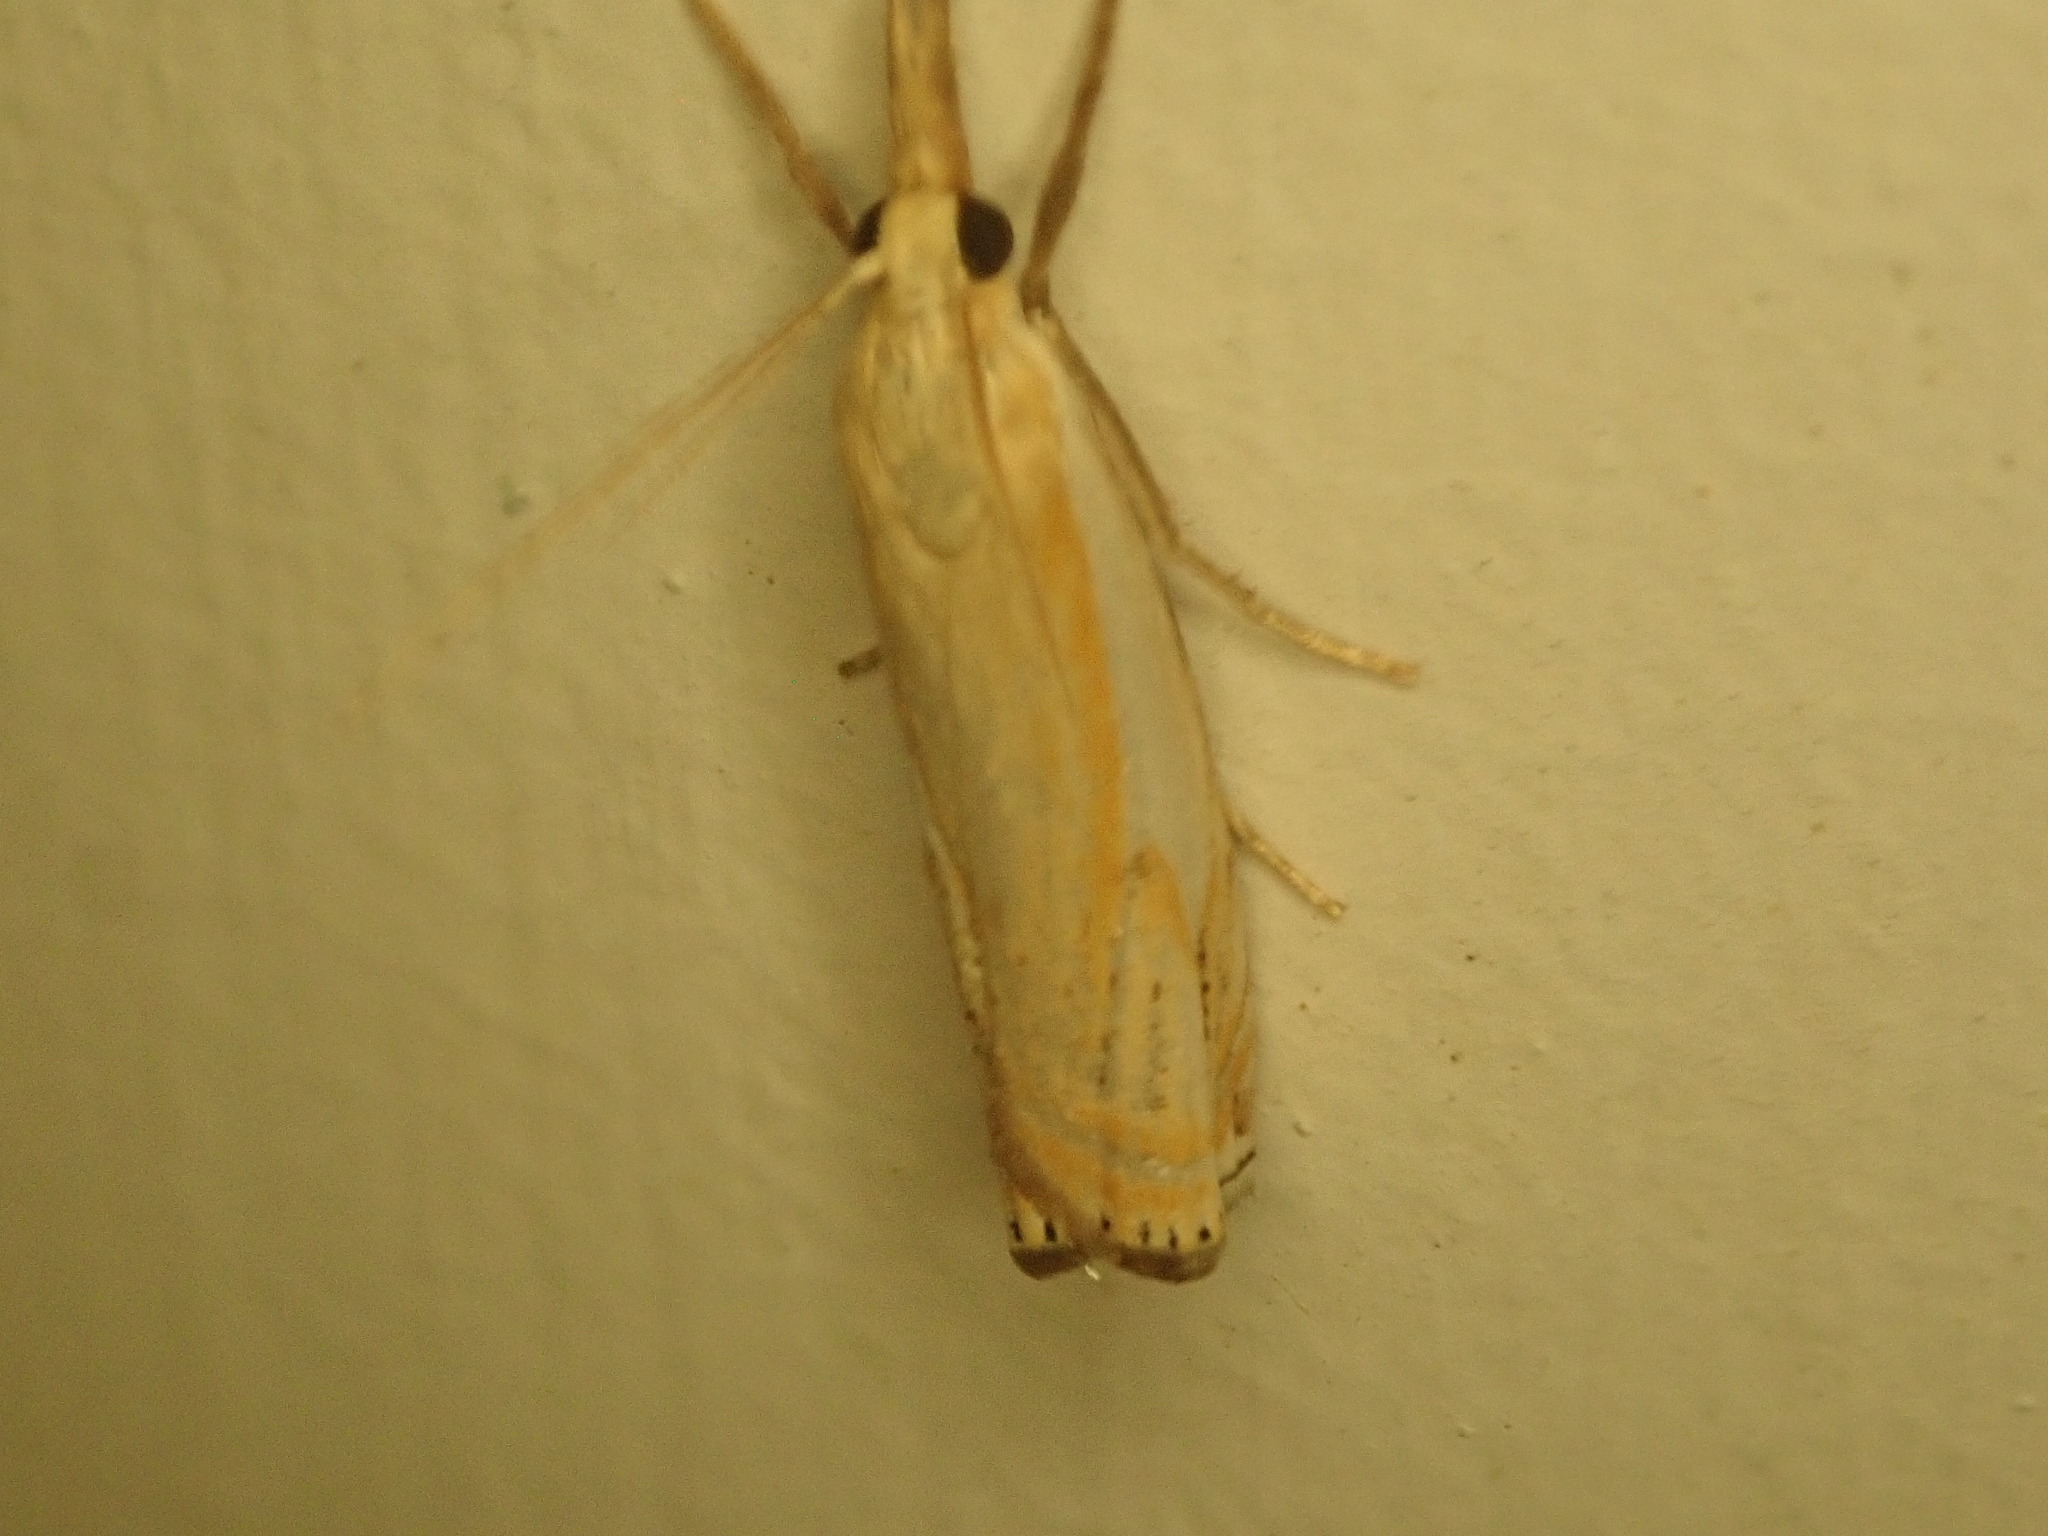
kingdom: Animalia
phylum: Arthropoda
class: Insecta
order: Lepidoptera
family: Crambidae
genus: Crambus
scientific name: Crambus agitatellus
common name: Double-banded grass-veneer
